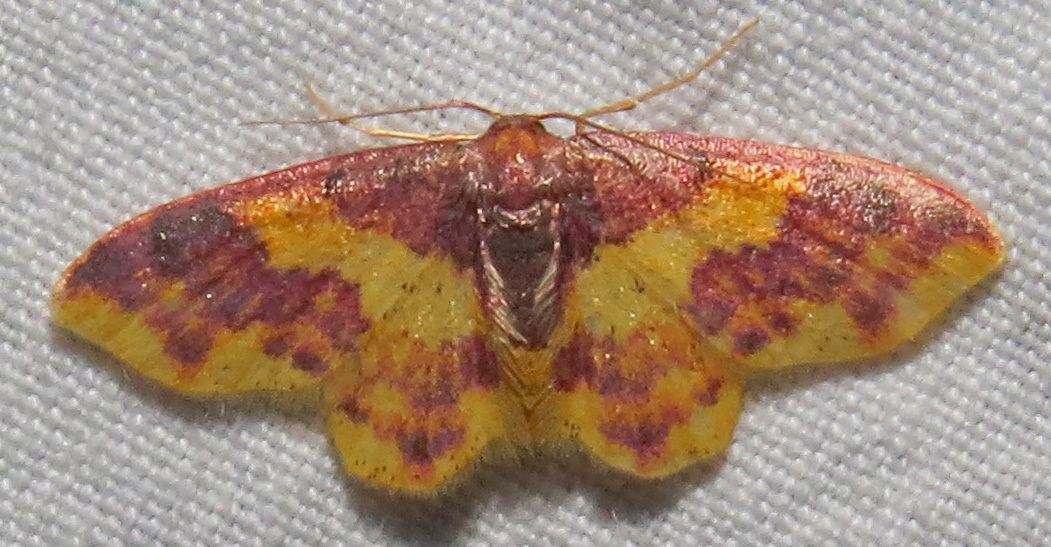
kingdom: Animalia
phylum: Arthropoda
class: Insecta
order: Lepidoptera
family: Geometridae
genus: Lophosis
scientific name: Lophosis labeculata
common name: Stained lophosis moth
